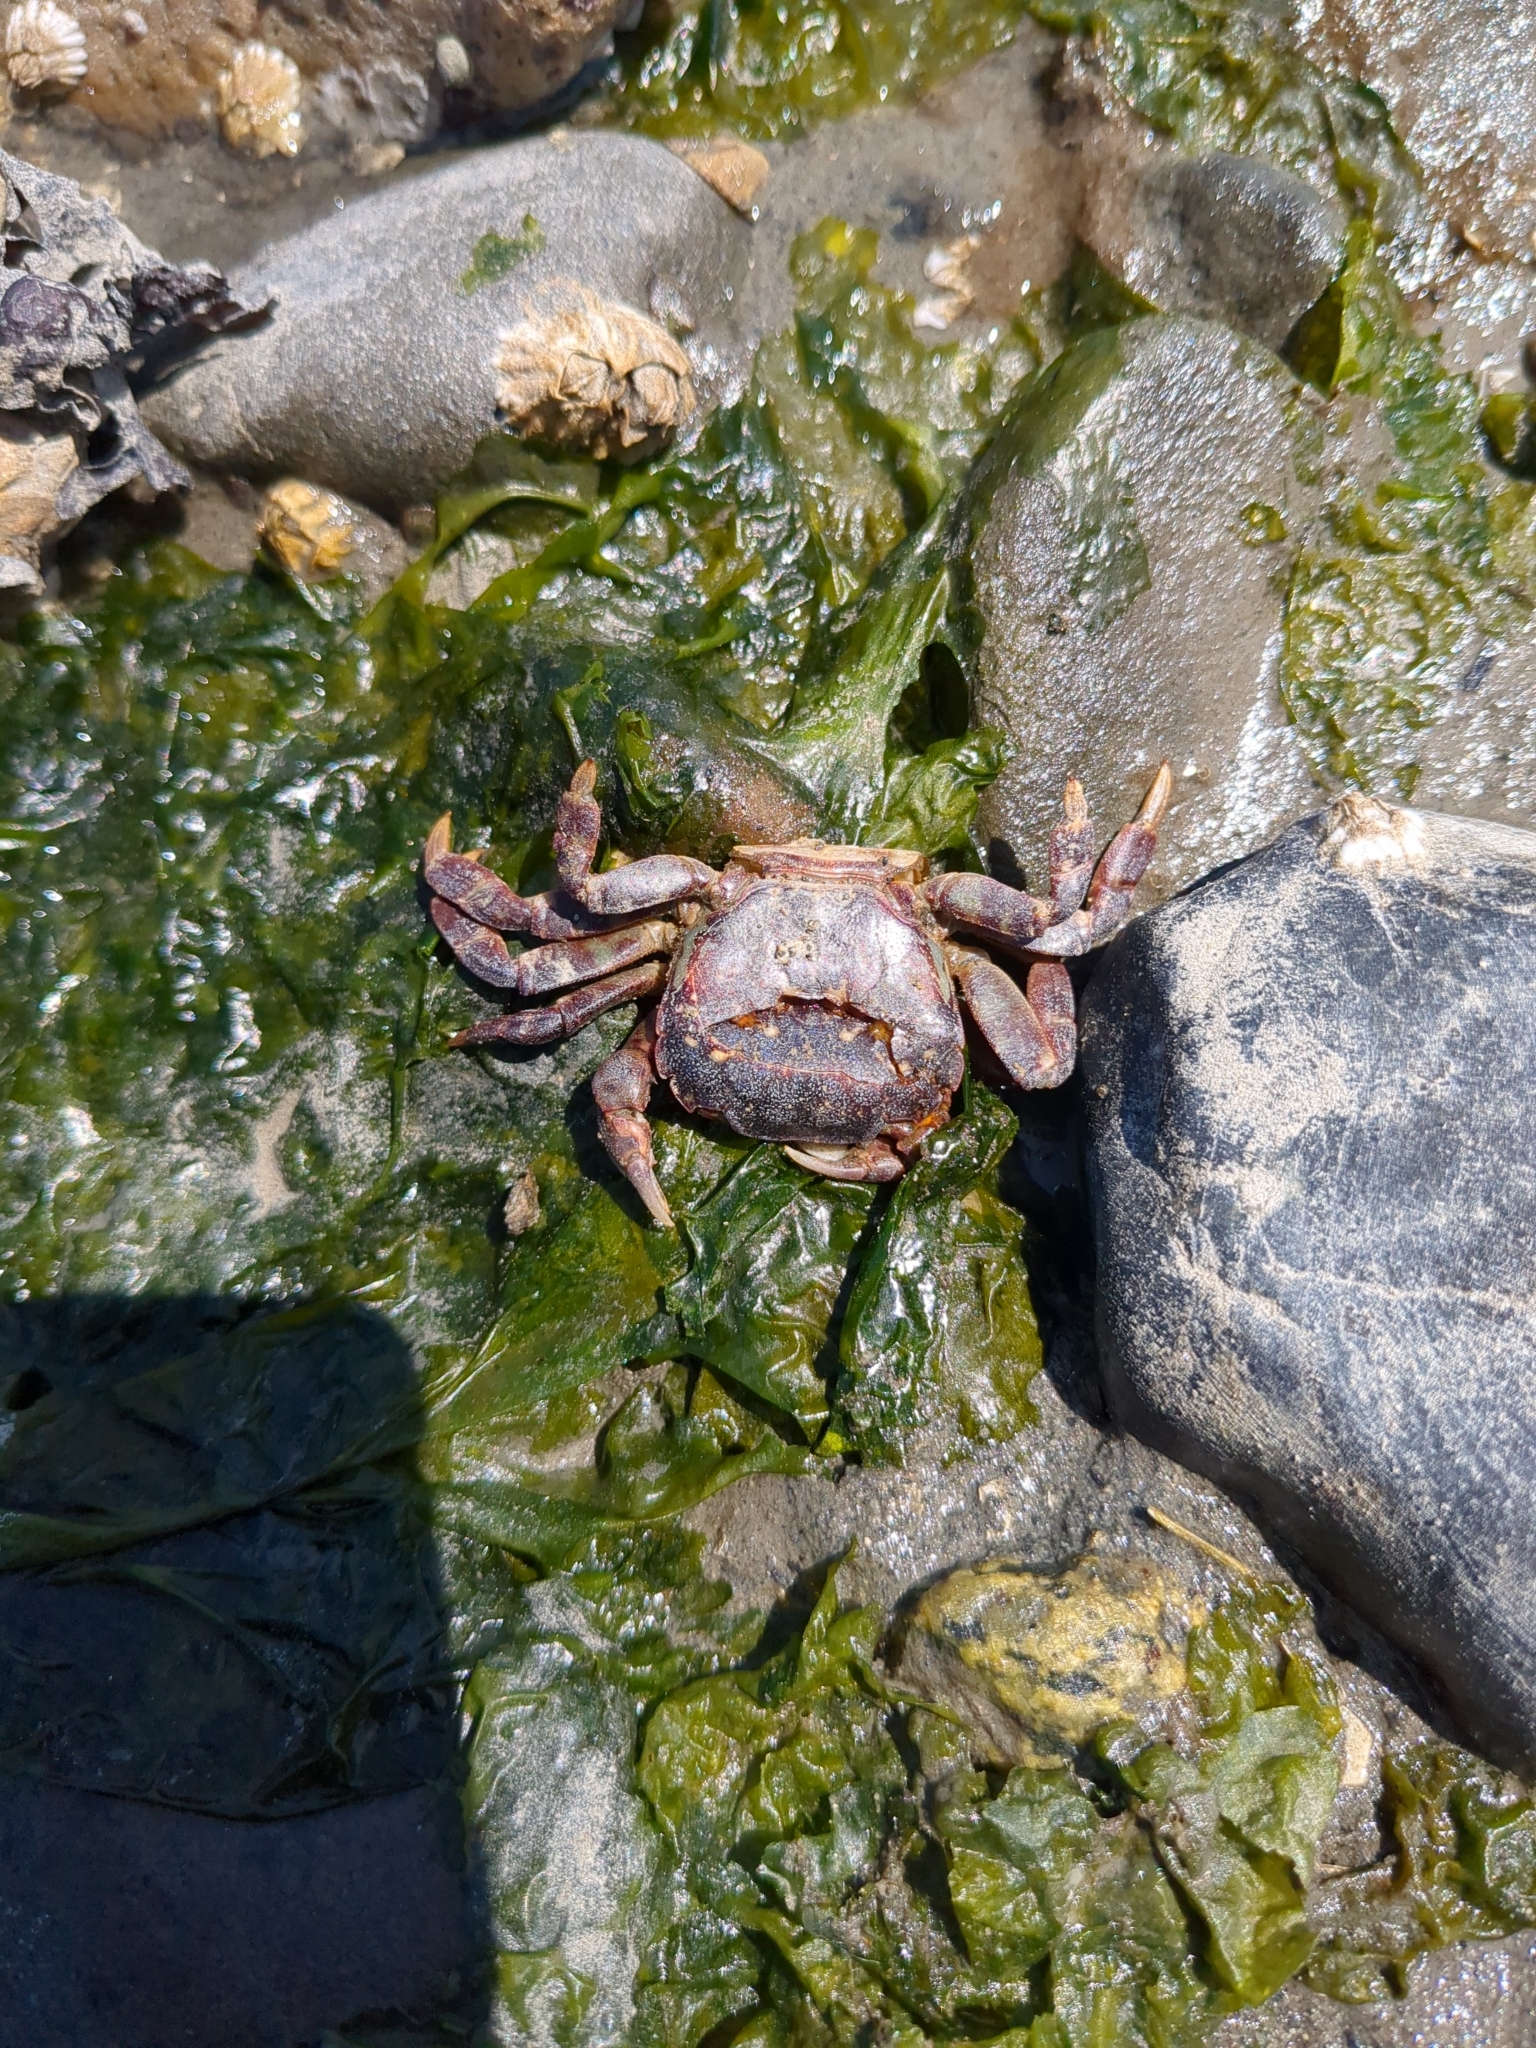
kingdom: Animalia
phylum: Arthropoda
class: Malacostraca
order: Decapoda
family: Varunidae
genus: Hemigrapsus
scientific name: Hemigrapsus nudus
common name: Purple shore crab
